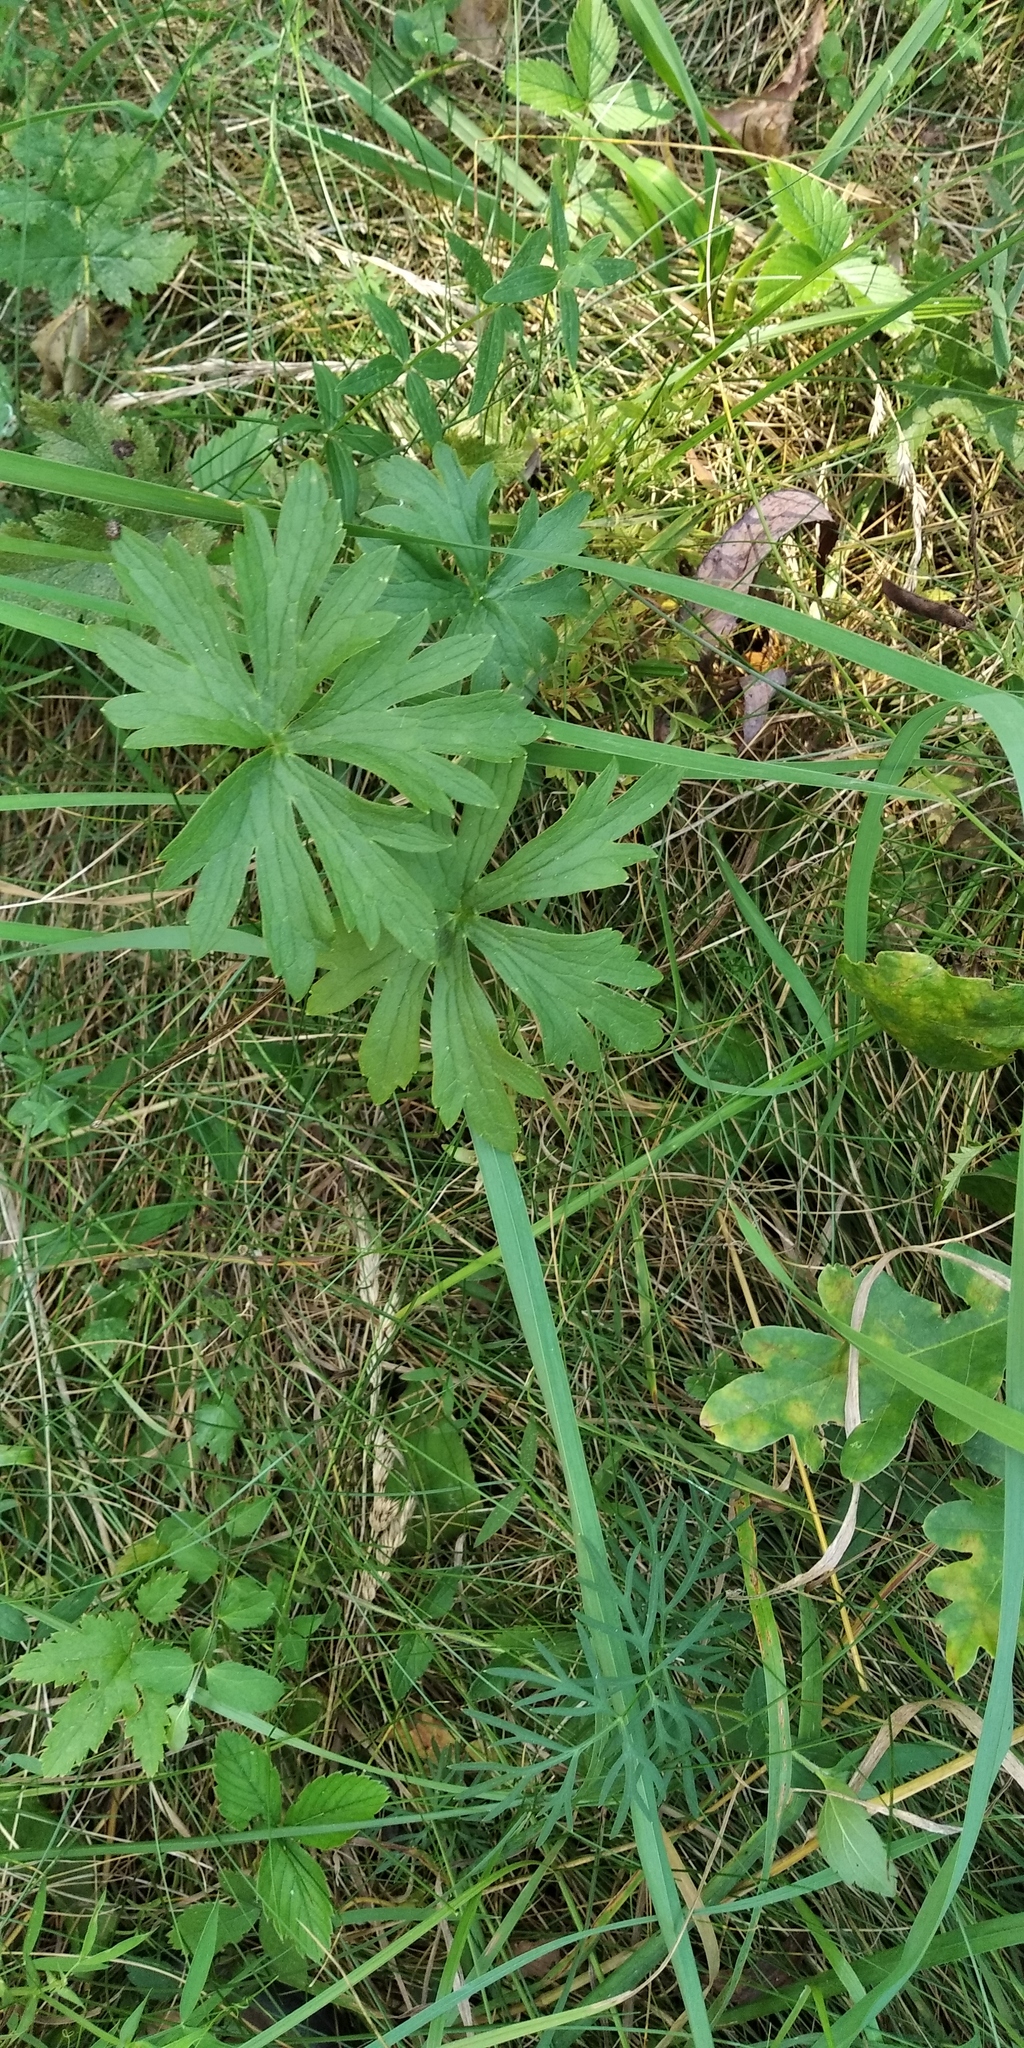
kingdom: Plantae
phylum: Tracheophyta
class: Magnoliopsida
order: Ranunculales
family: Ranunculaceae
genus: Ranunculus
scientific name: Ranunculus acris
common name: Meadow buttercup
